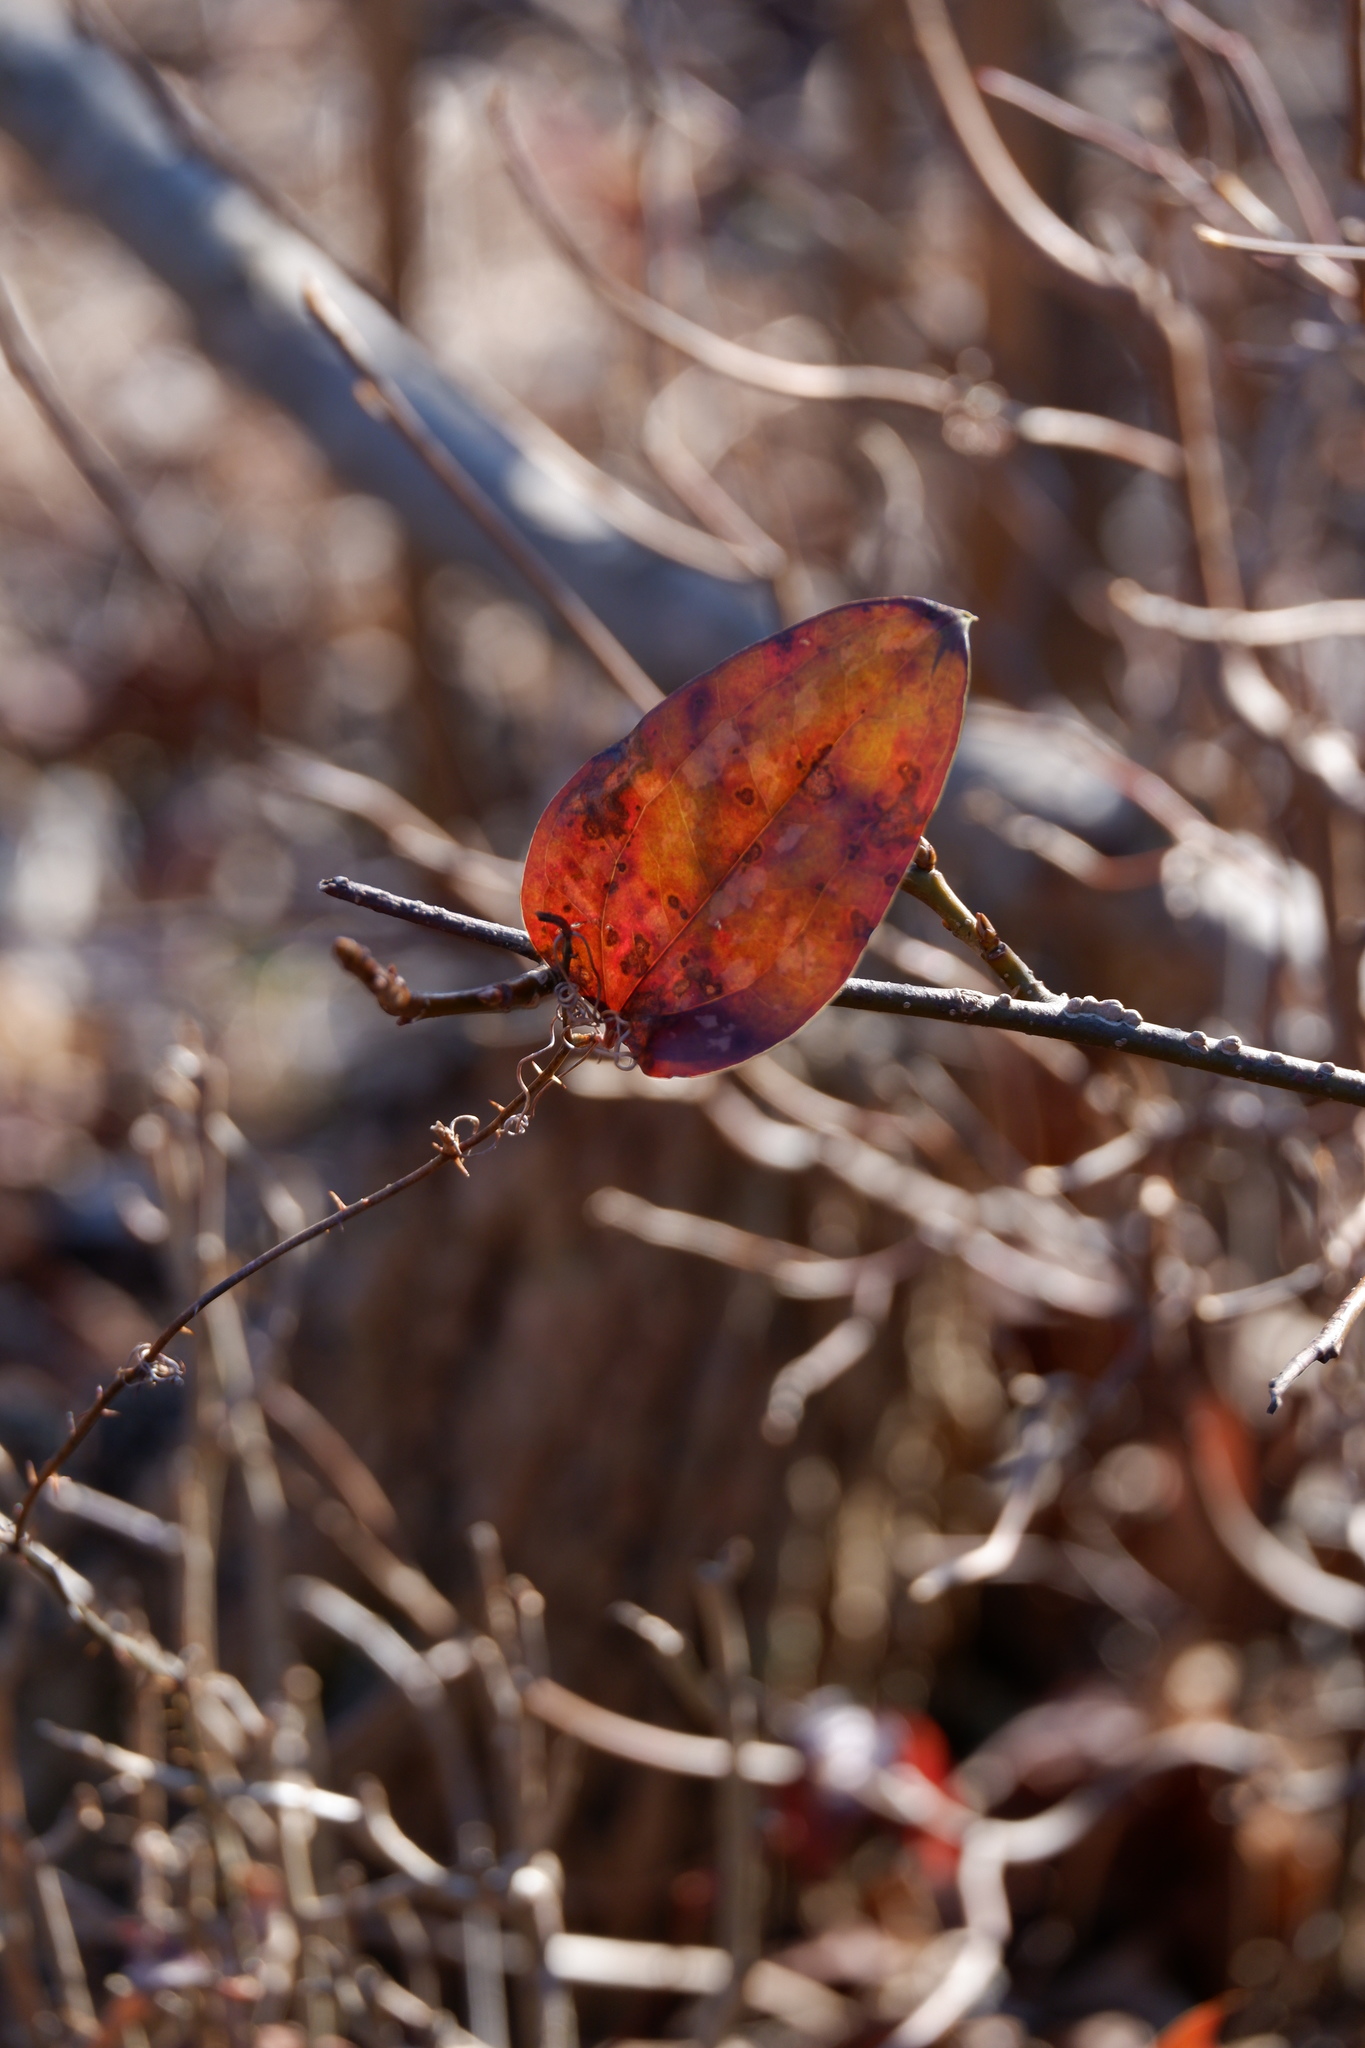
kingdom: Plantae
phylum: Tracheophyta
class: Liliopsida
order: Liliales
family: Smilacaceae
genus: Smilax
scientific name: Smilax glauca
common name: Cat greenbrier
